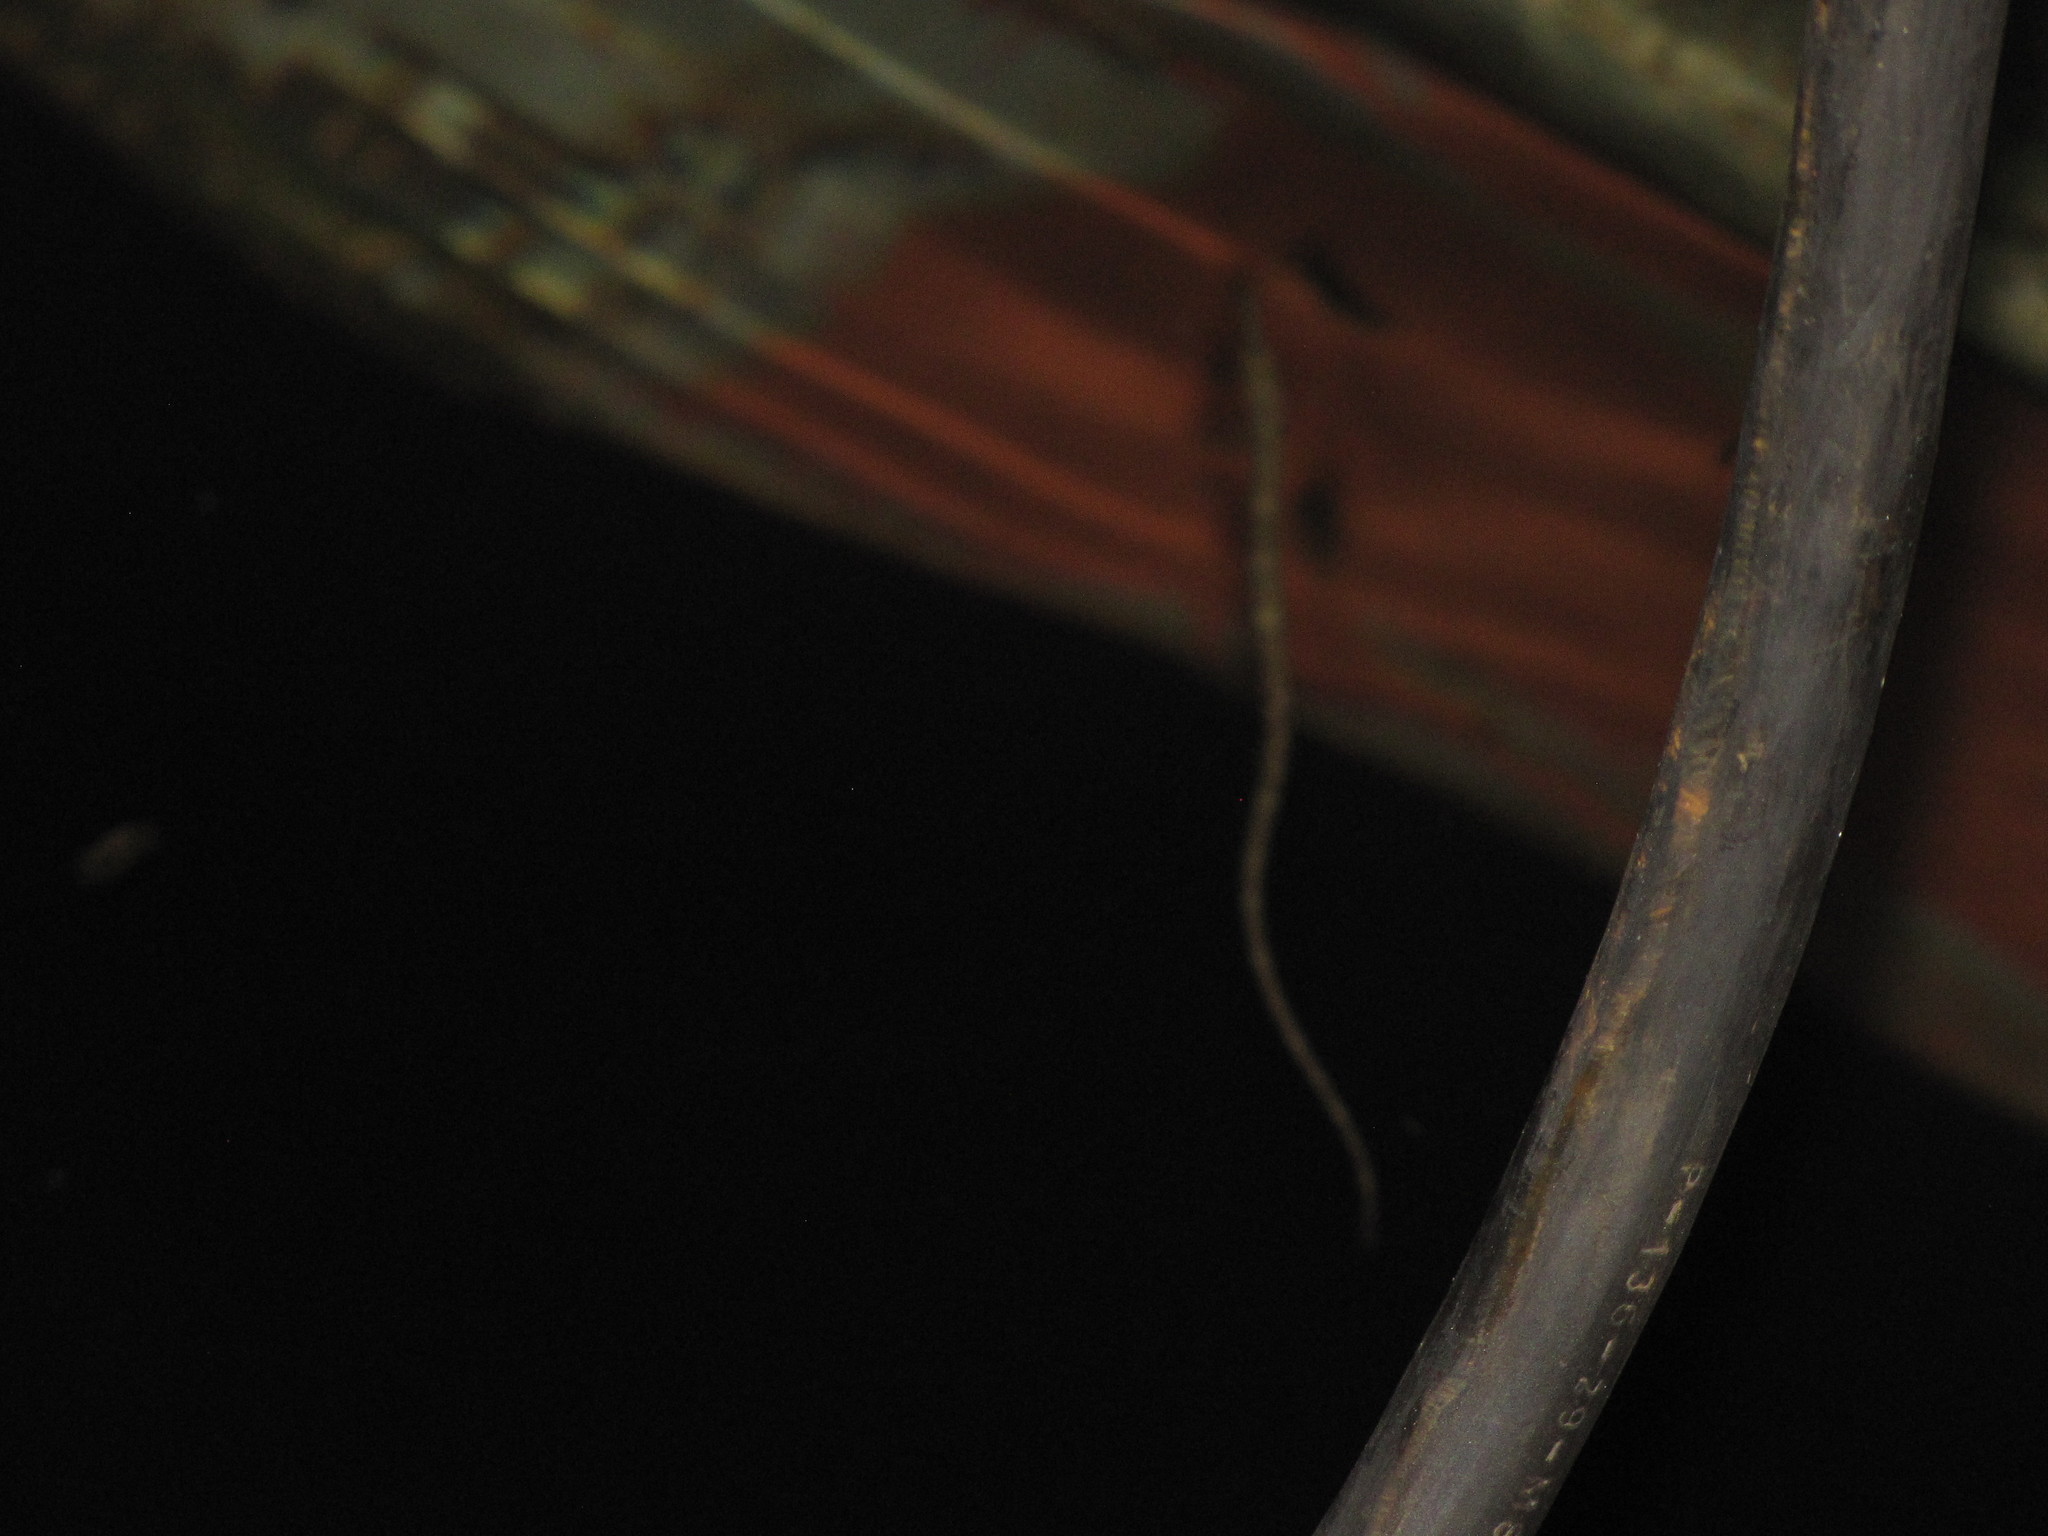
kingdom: Animalia
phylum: Chordata
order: Syngnathiformes
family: Syngnathidae
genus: Syngnathus
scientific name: Syngnathus californiensis
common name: Great pipefish
